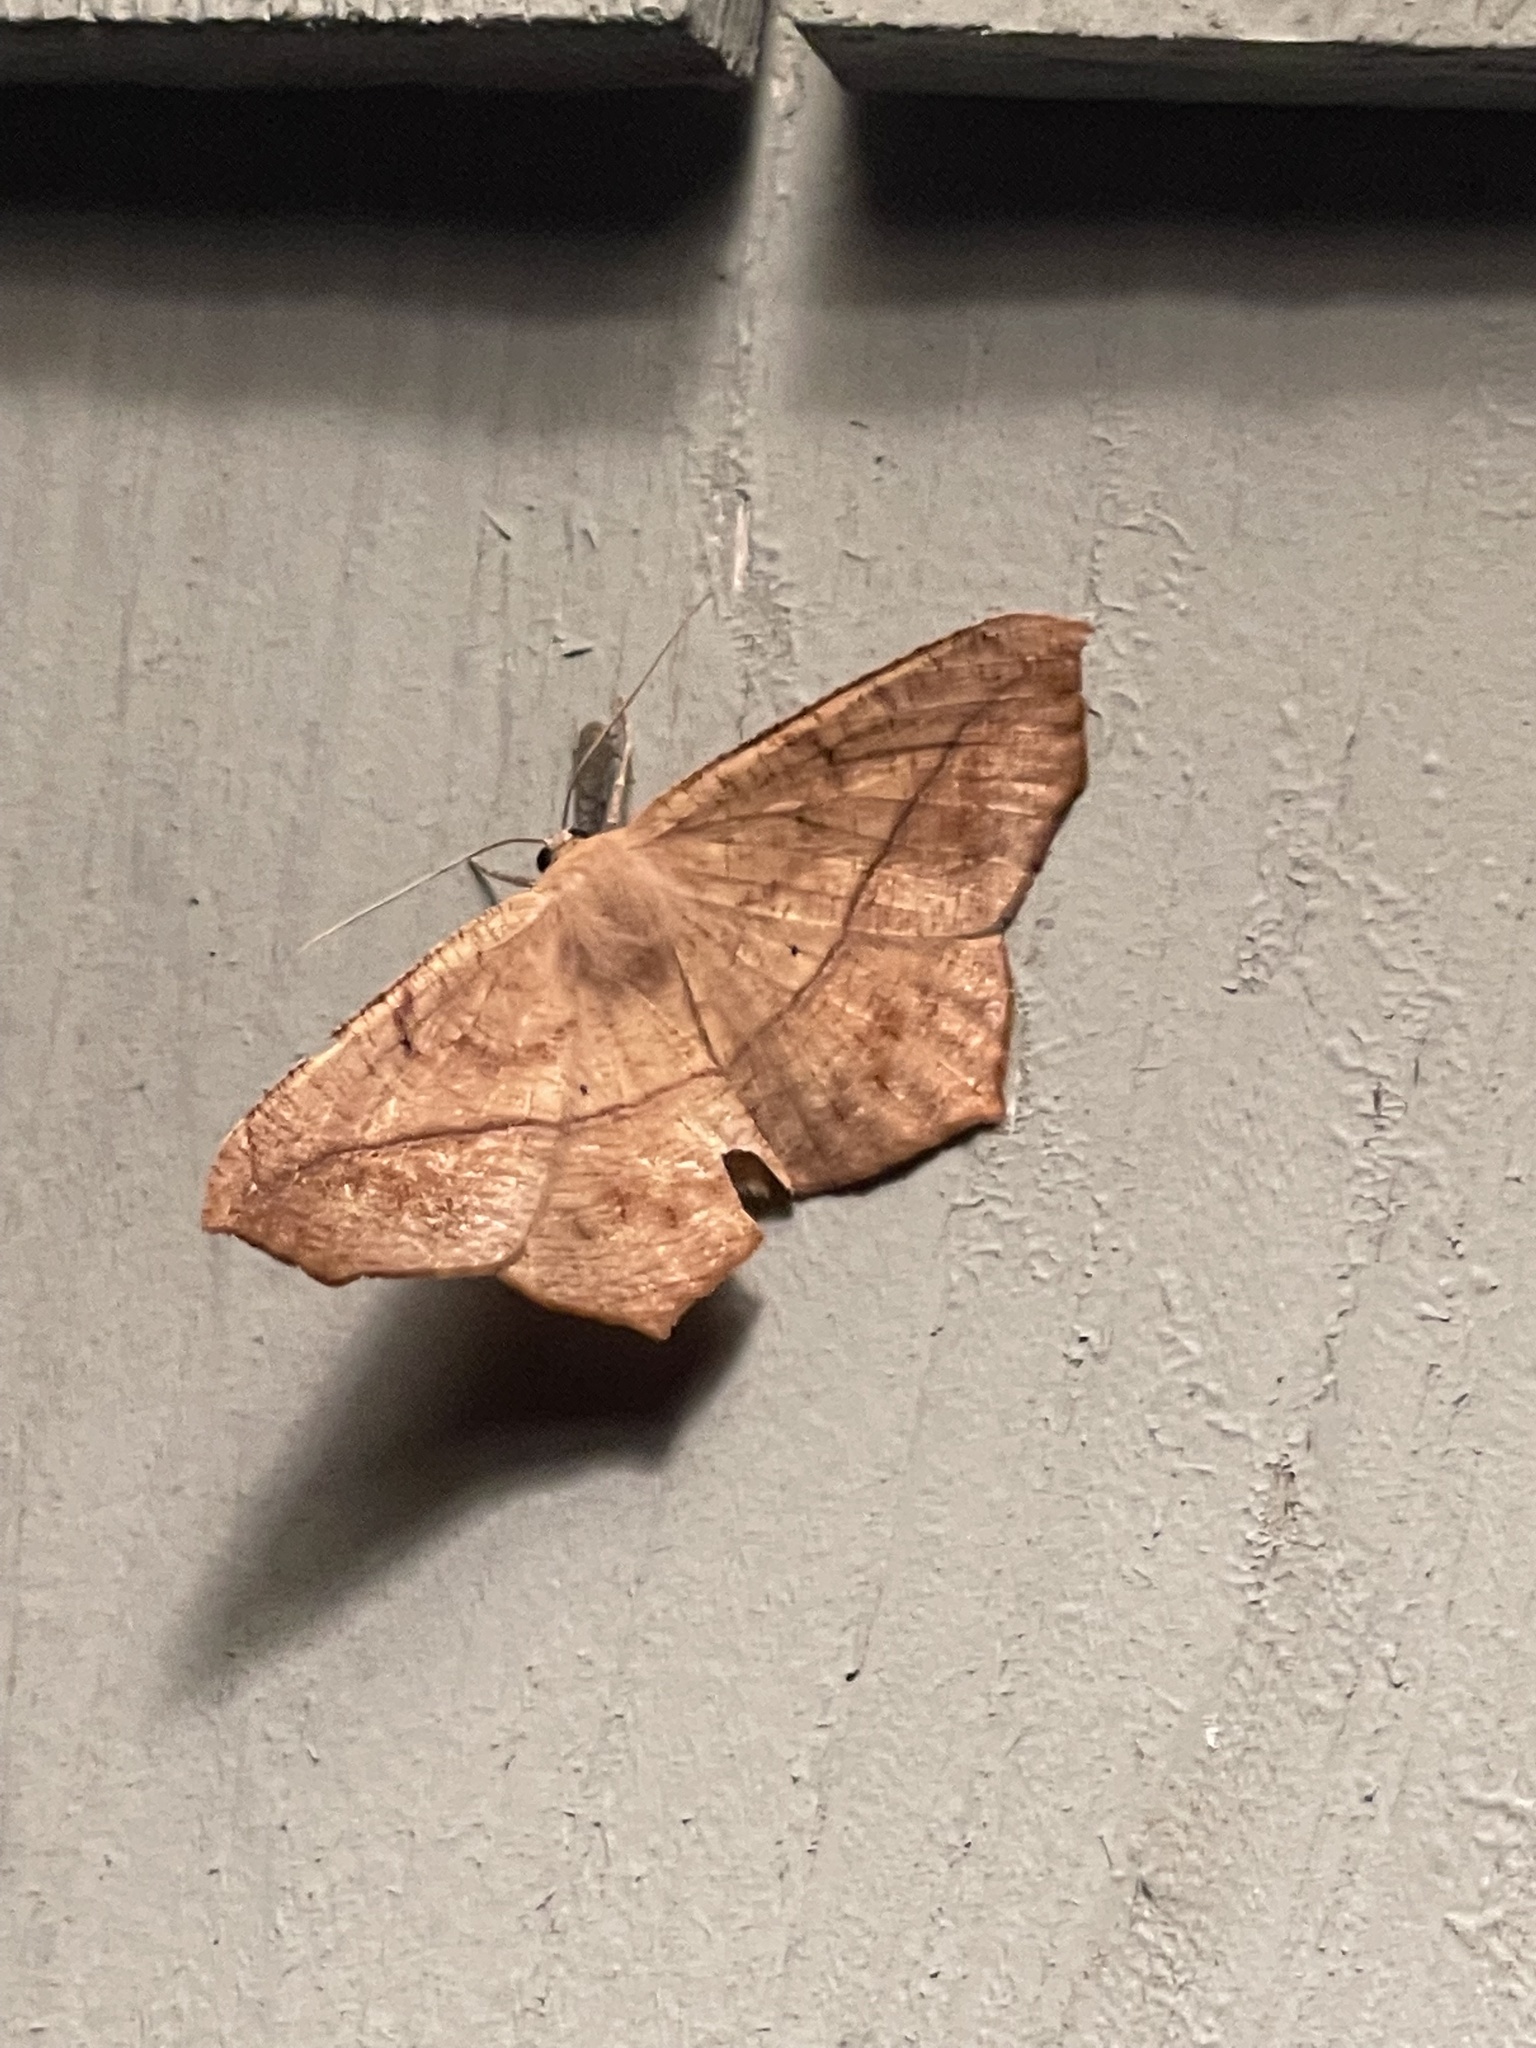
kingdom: Animalia
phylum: Arthropoda
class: Insecta
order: Lepidoptera
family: Geometridae
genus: Prochoerodes
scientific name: Prochoerodes lineola
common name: Large maple spanworm
